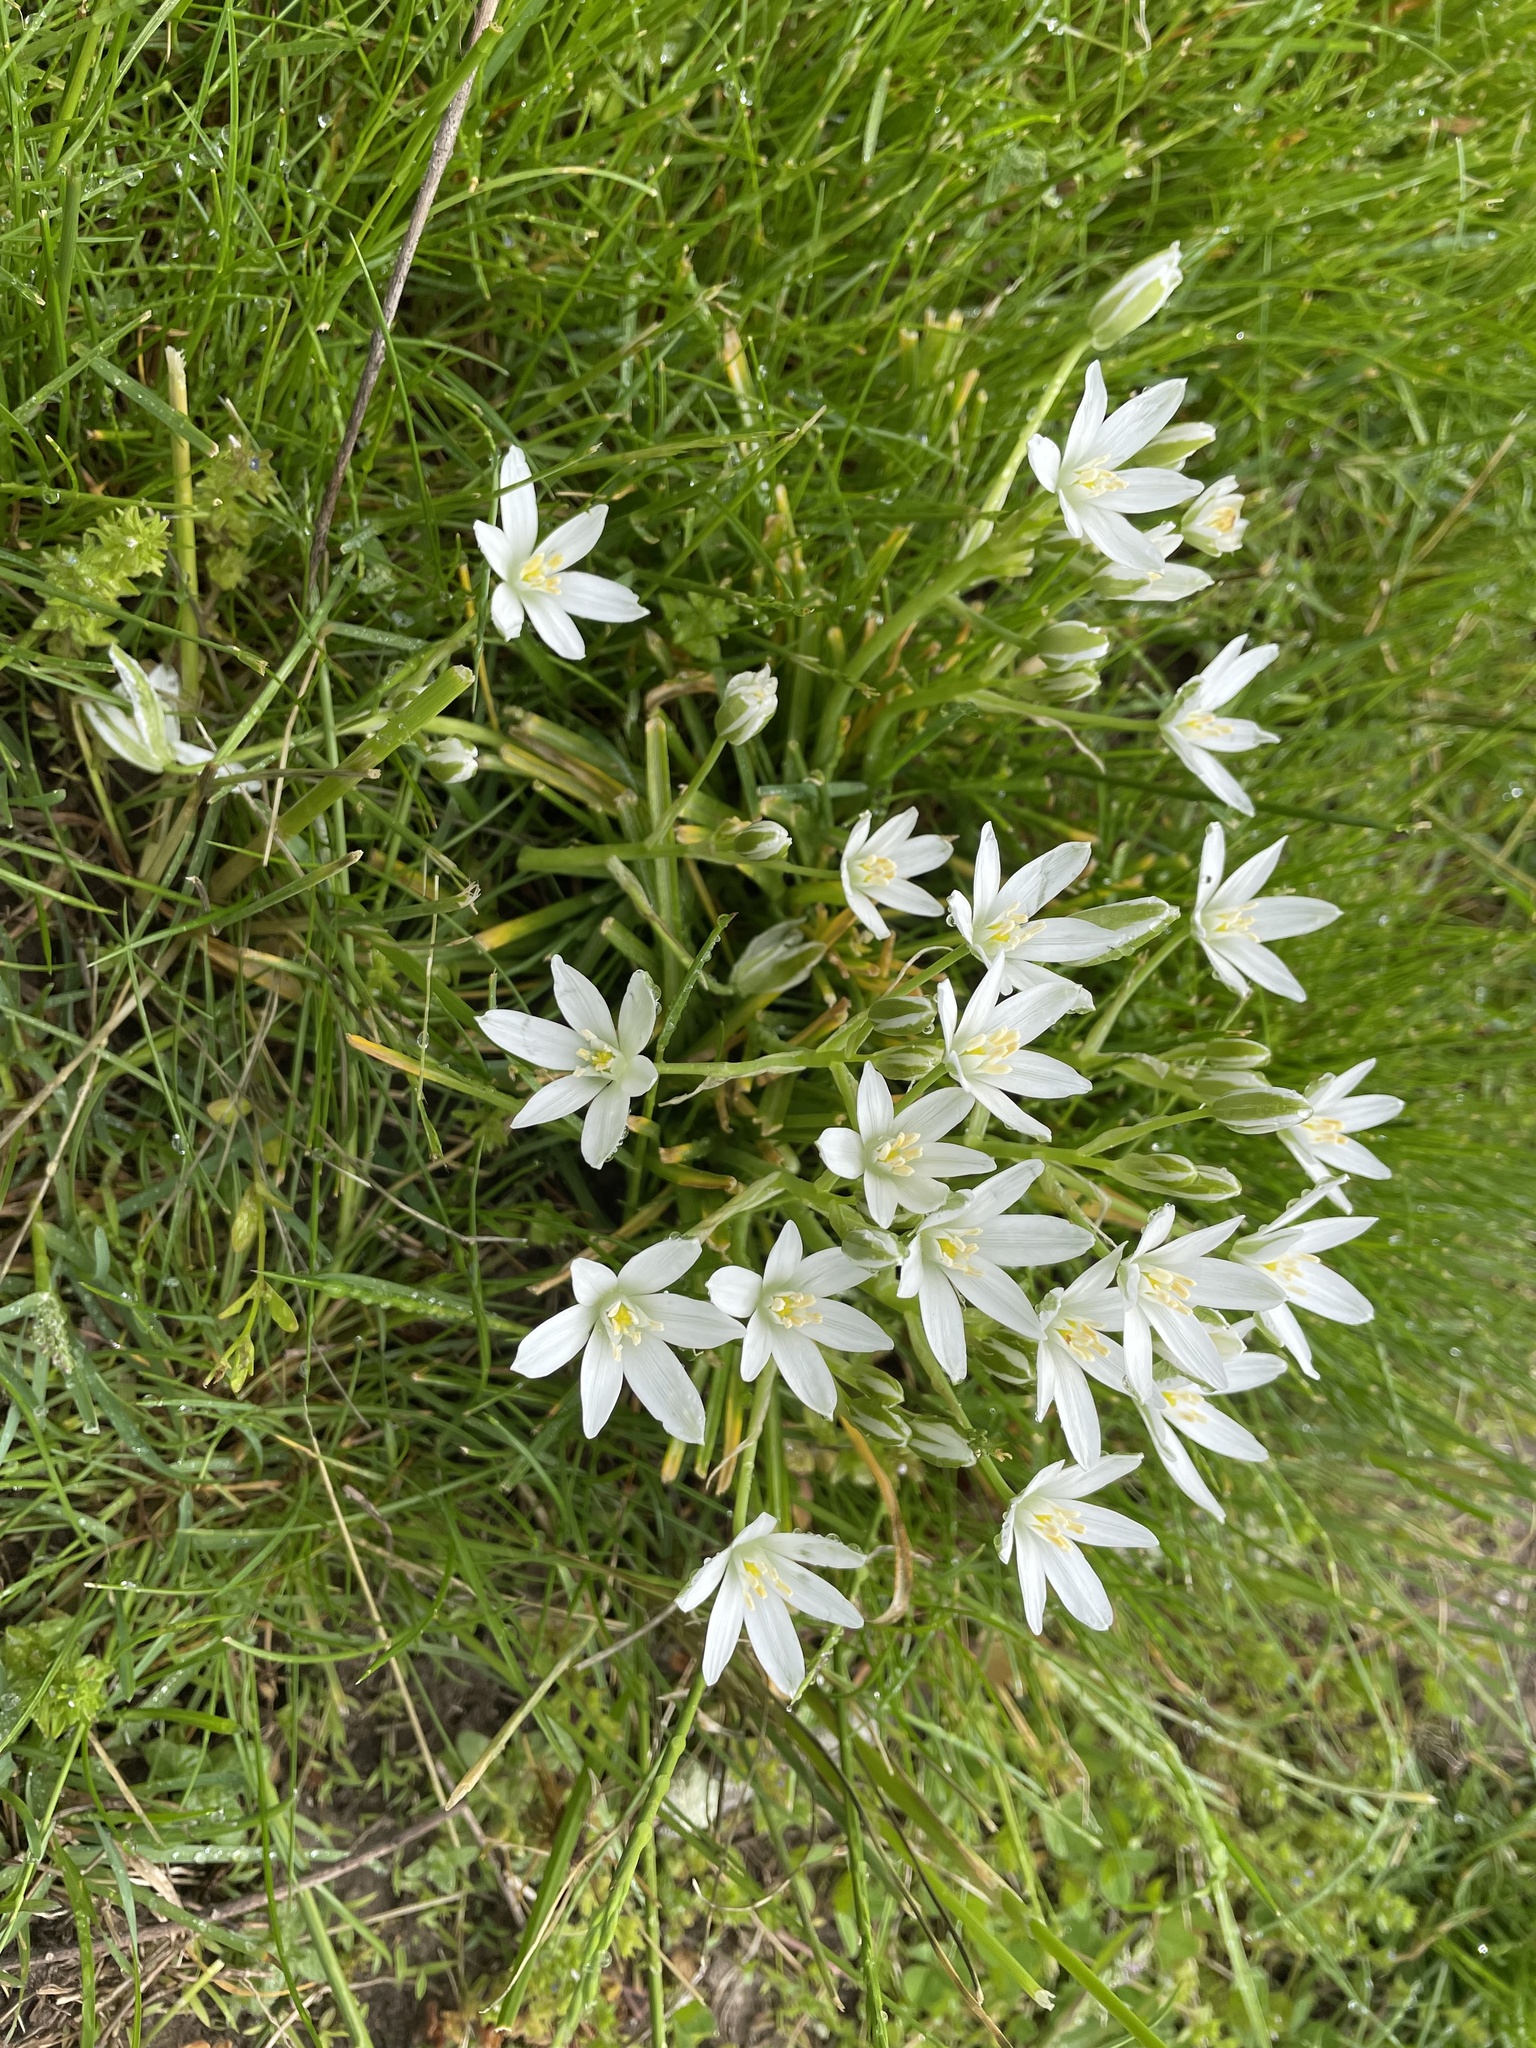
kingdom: Plantae
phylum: Tracheophyta
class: Liliopsida
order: Asparagales
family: Asparagaceae
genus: Ornithogalum
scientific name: Ornithogalum umbellatum
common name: Garden star-of-bethlehem
